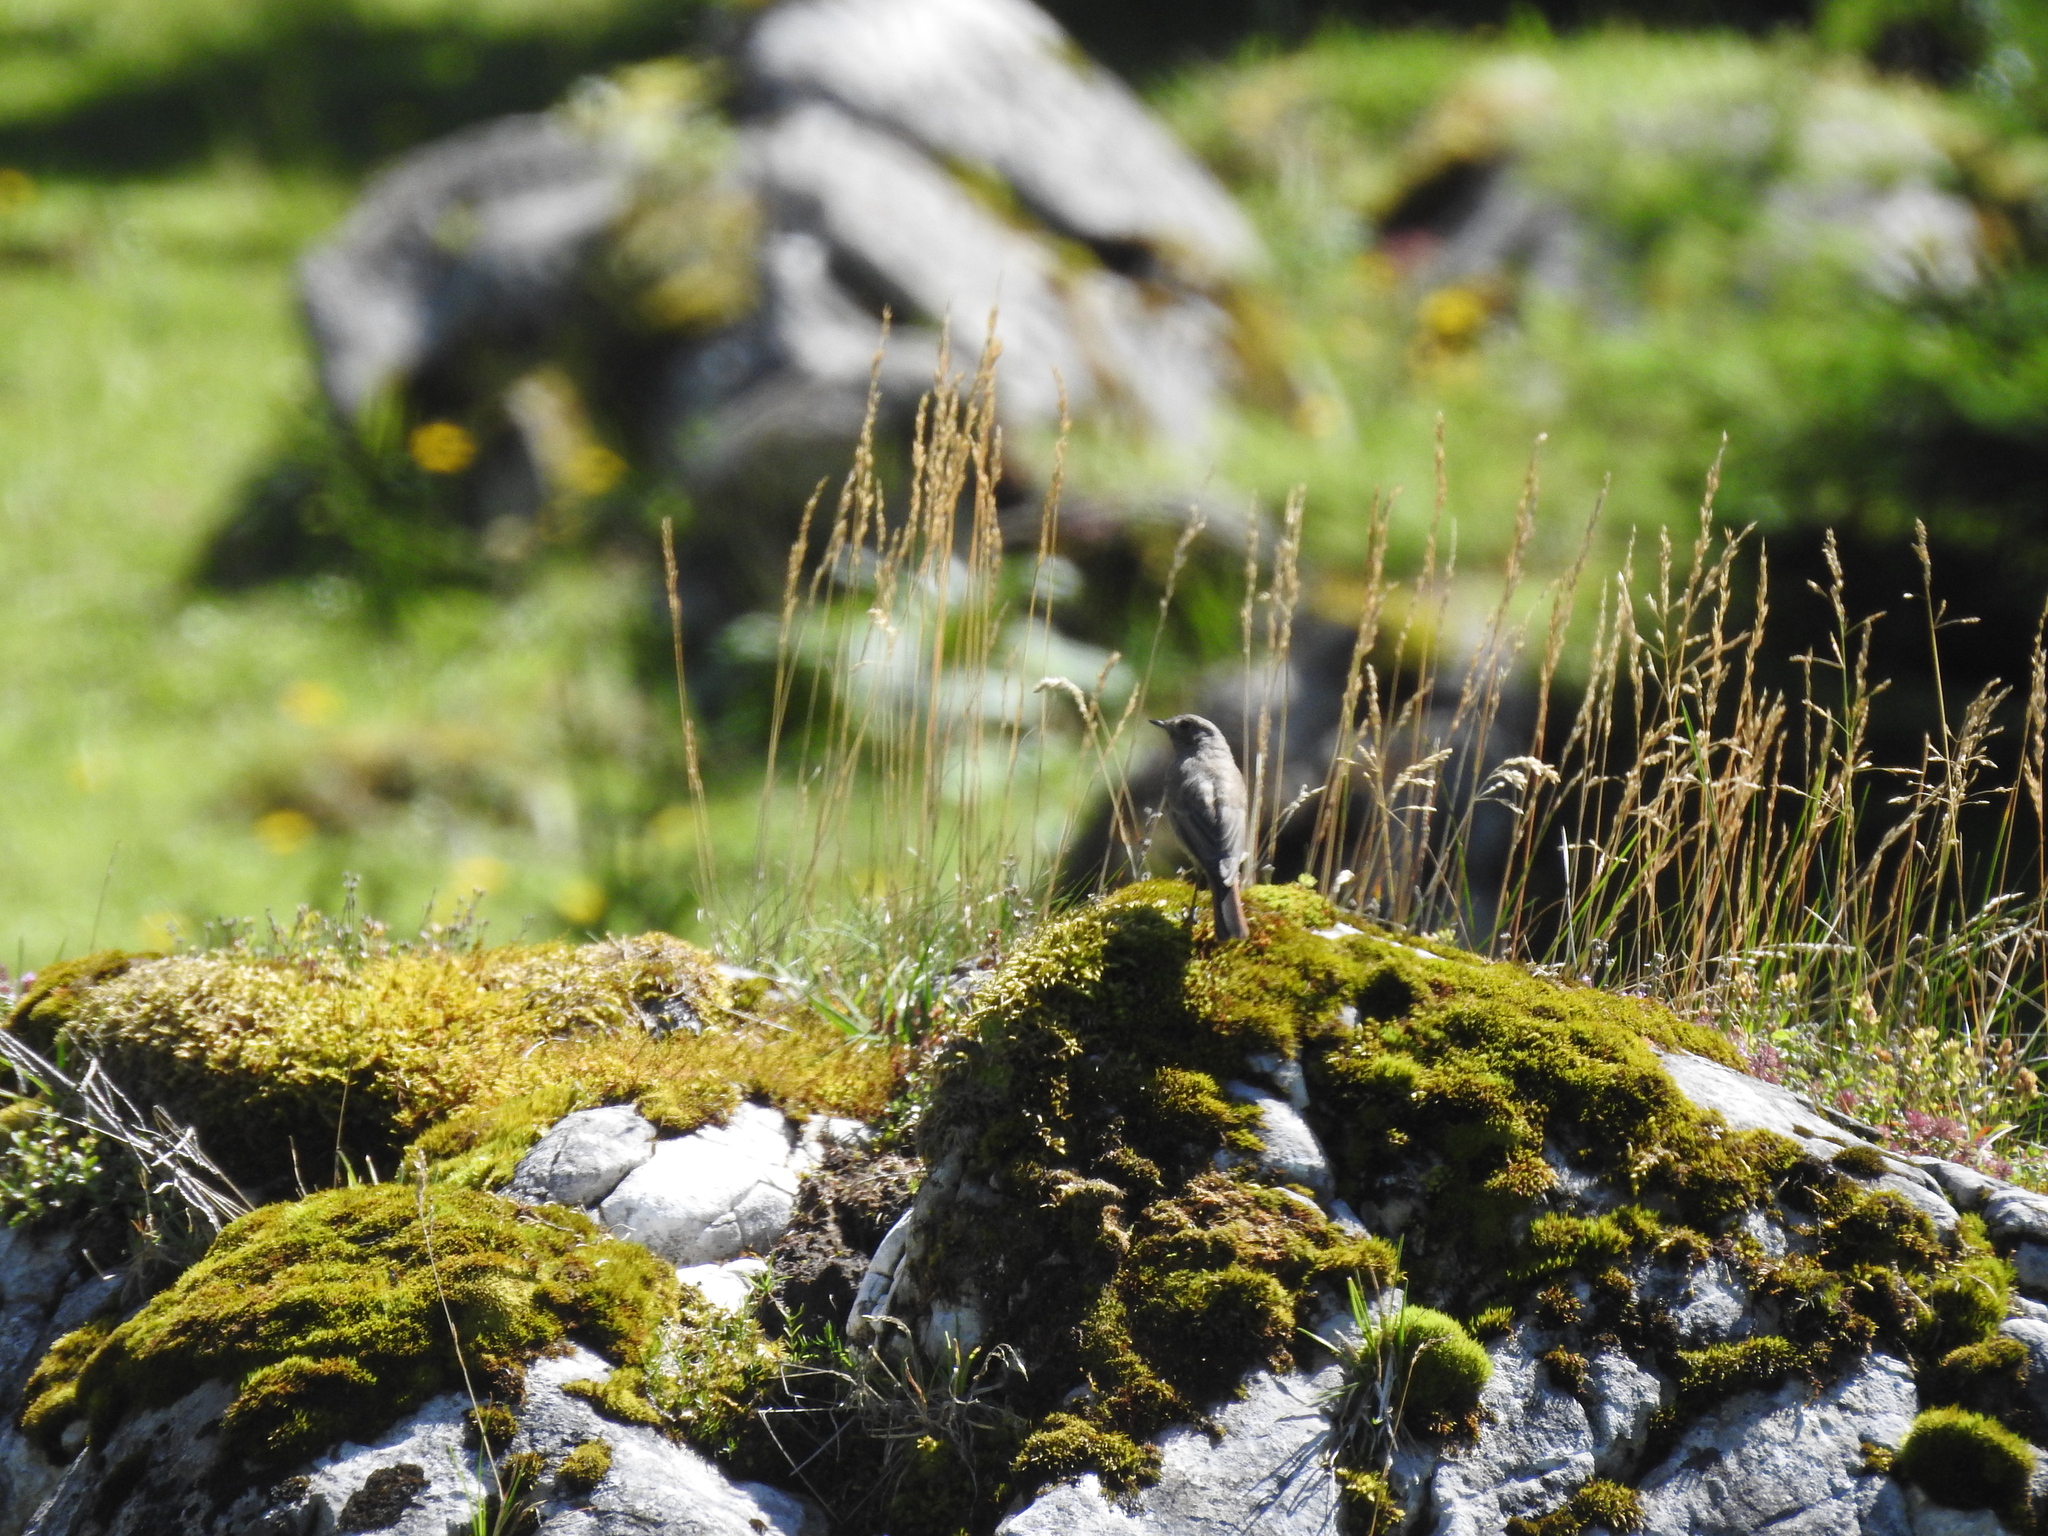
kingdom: Animalia
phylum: Chordata
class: Aves
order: Passeriformes
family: Muscicapidae
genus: Phoenicurus
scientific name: Phoenicurus ochruros
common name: Black redstart
